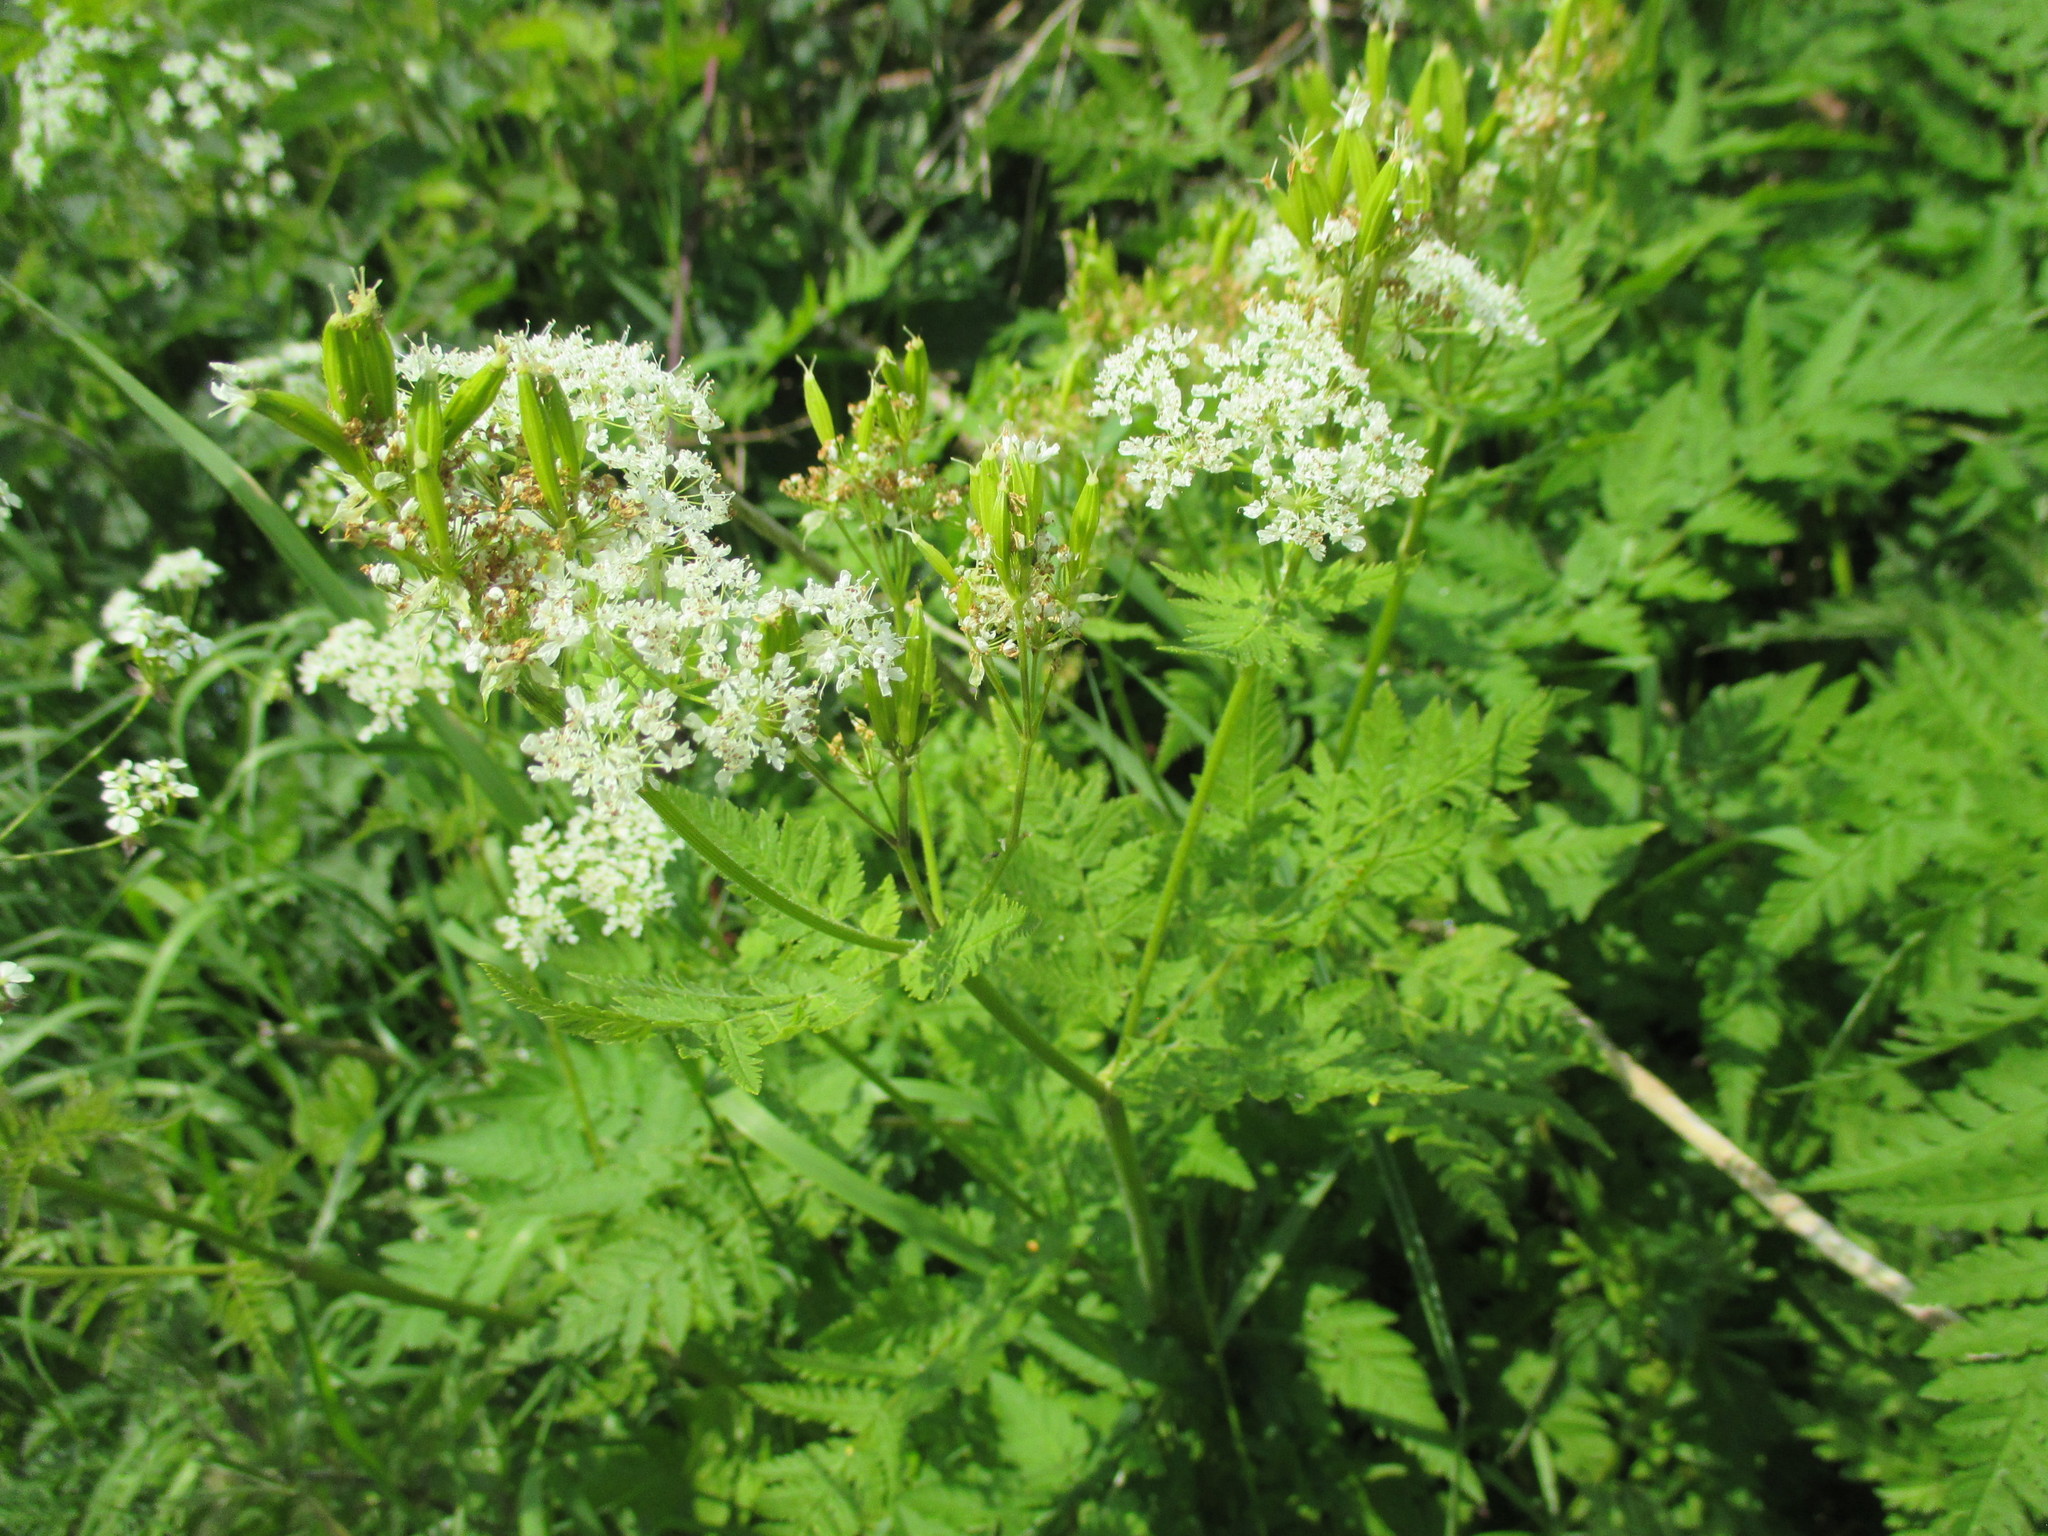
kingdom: Plantae
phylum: Tracheophyta
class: Magnoliopsida
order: Apiales
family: Apiaceae
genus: Myrrhis
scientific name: Myrrhis odorata
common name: Sweet cicely
